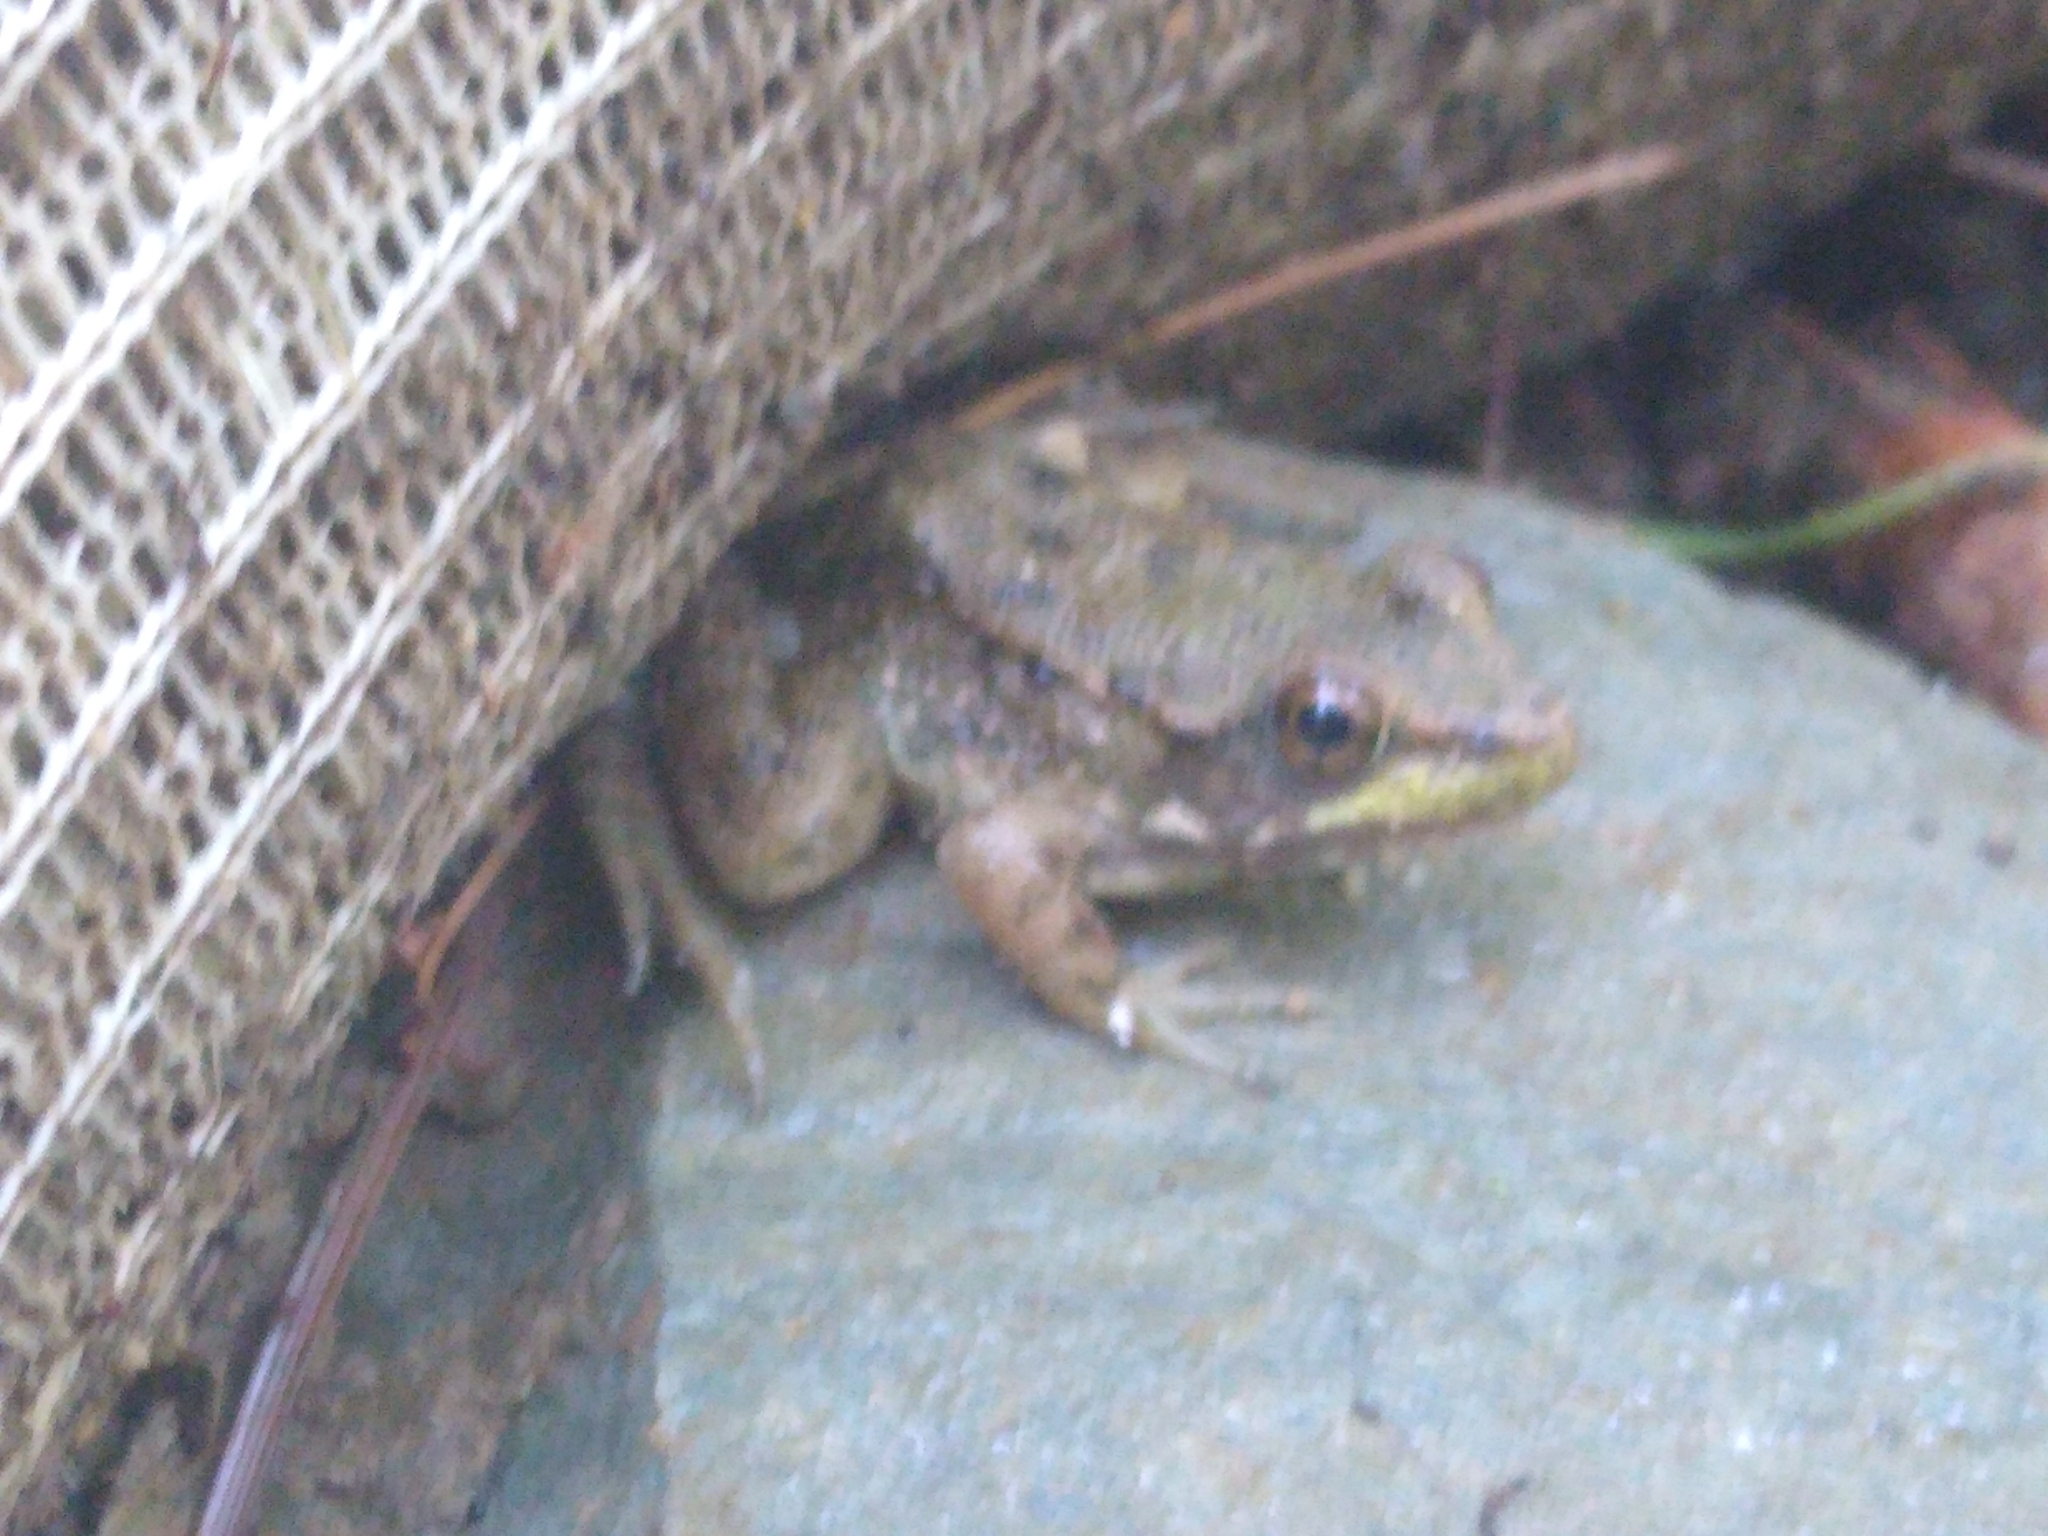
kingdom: Animalia
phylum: Chordata
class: Amphibia
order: Anura
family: Ranidae
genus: Lithobates
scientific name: Lithobates clamitans
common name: Green frog
